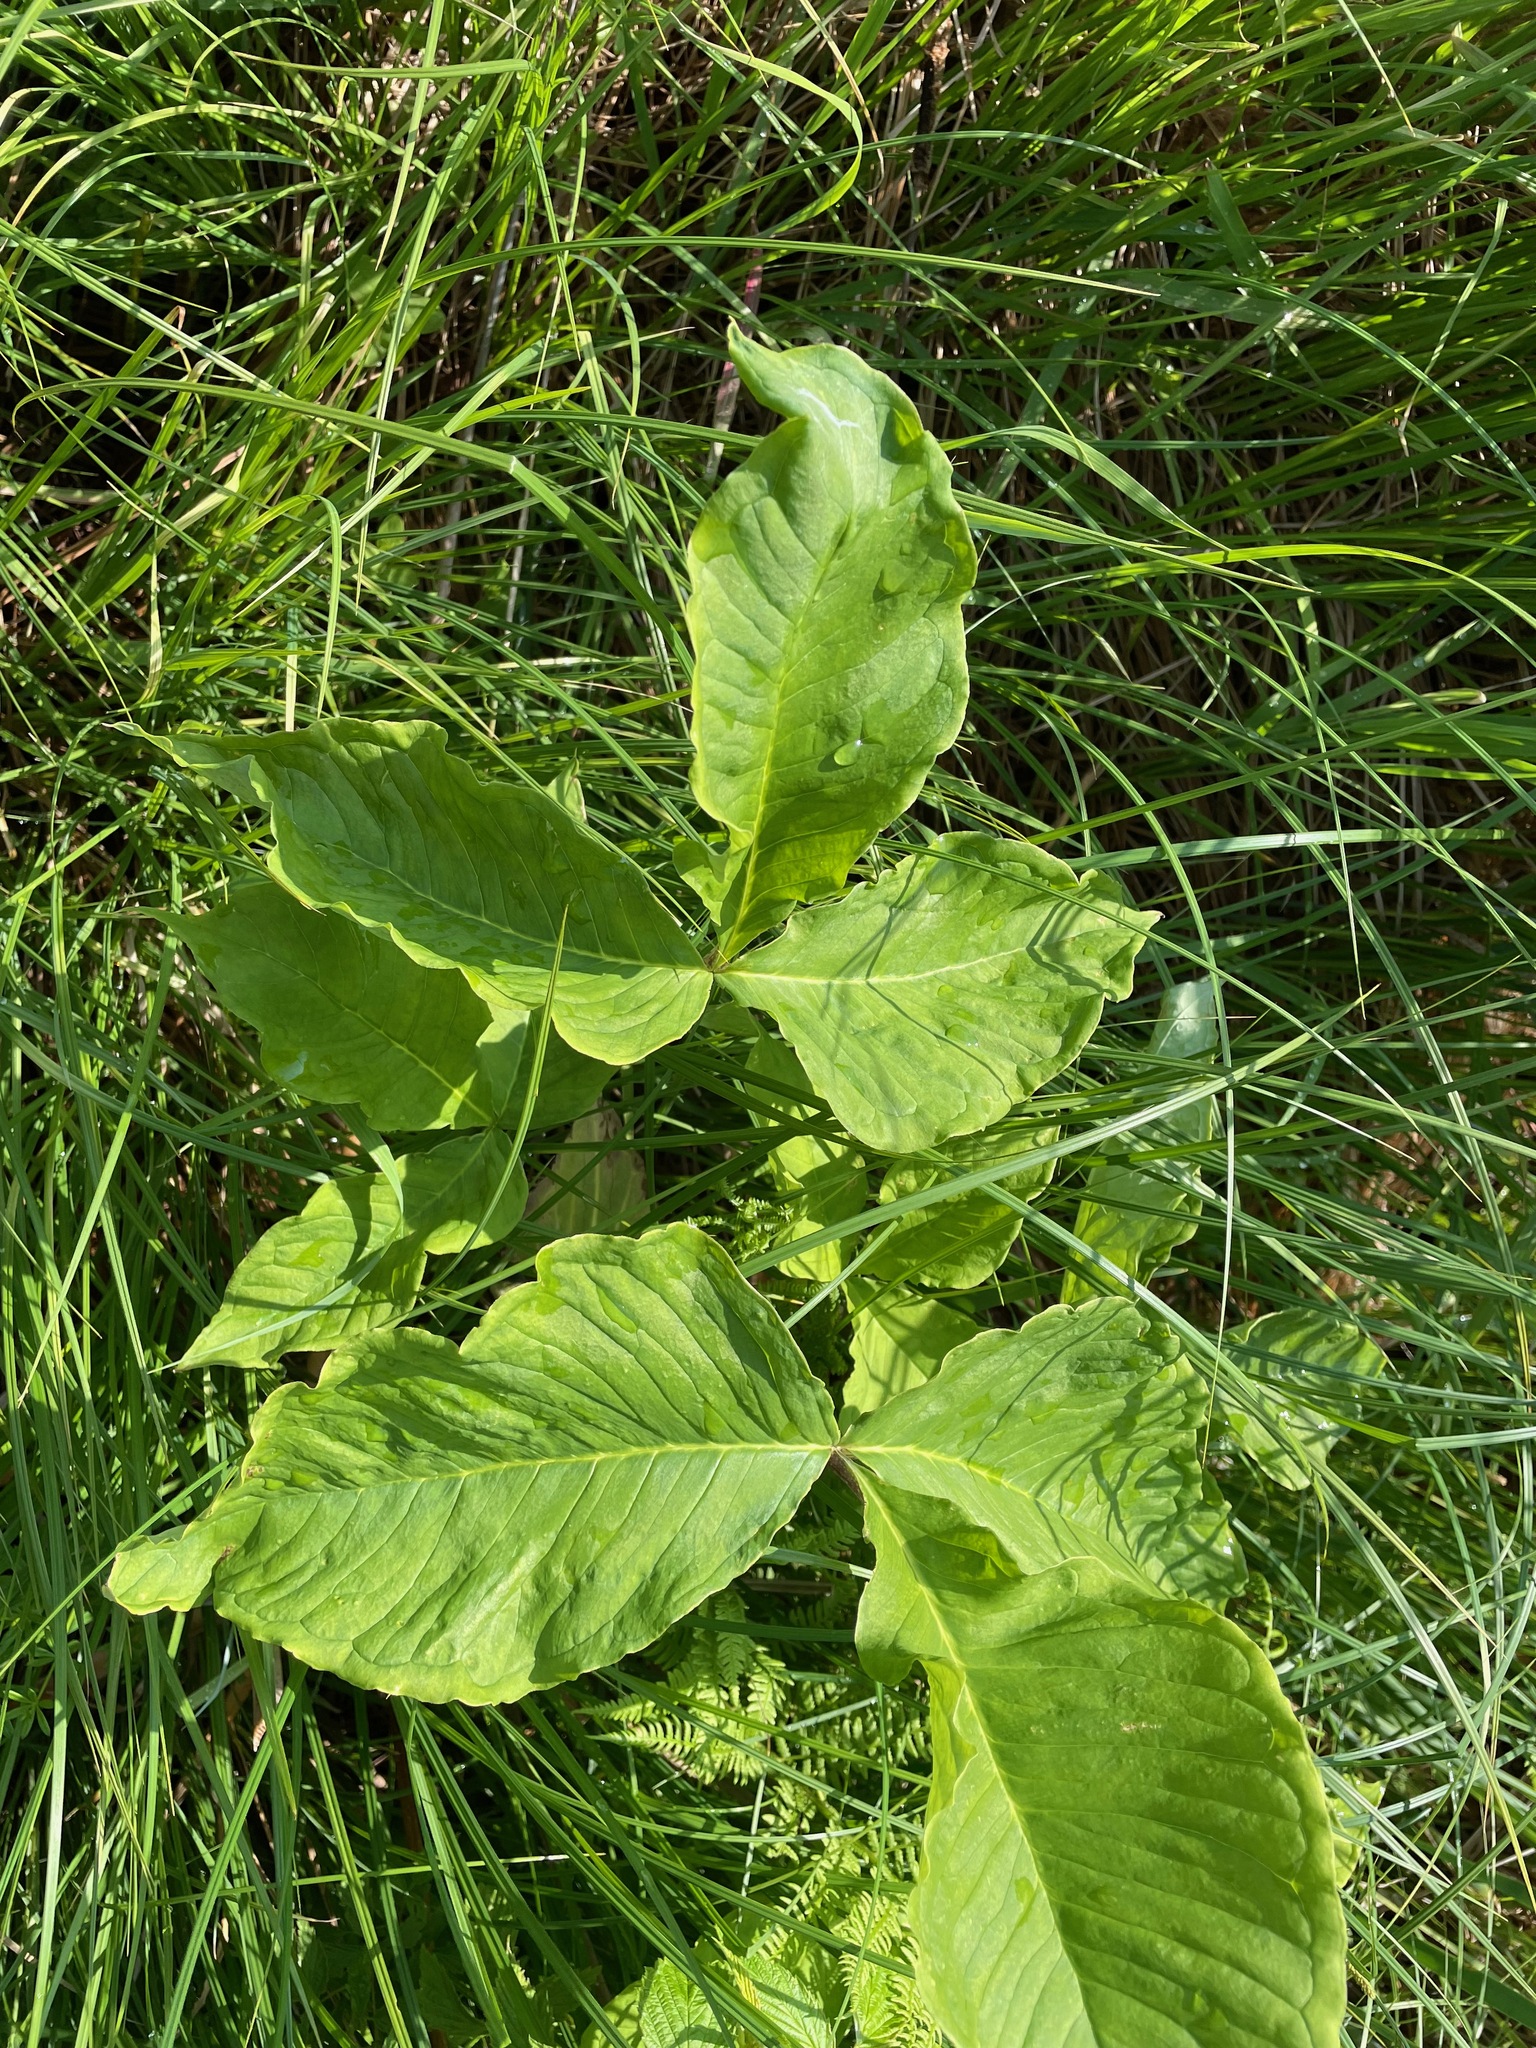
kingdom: Plantae
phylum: Tracheophyta
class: Liliopsida
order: Alismatales
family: Araceae
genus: Arisaema
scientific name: Arisaema triphyllum
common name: Jack-in-the-pulpit
